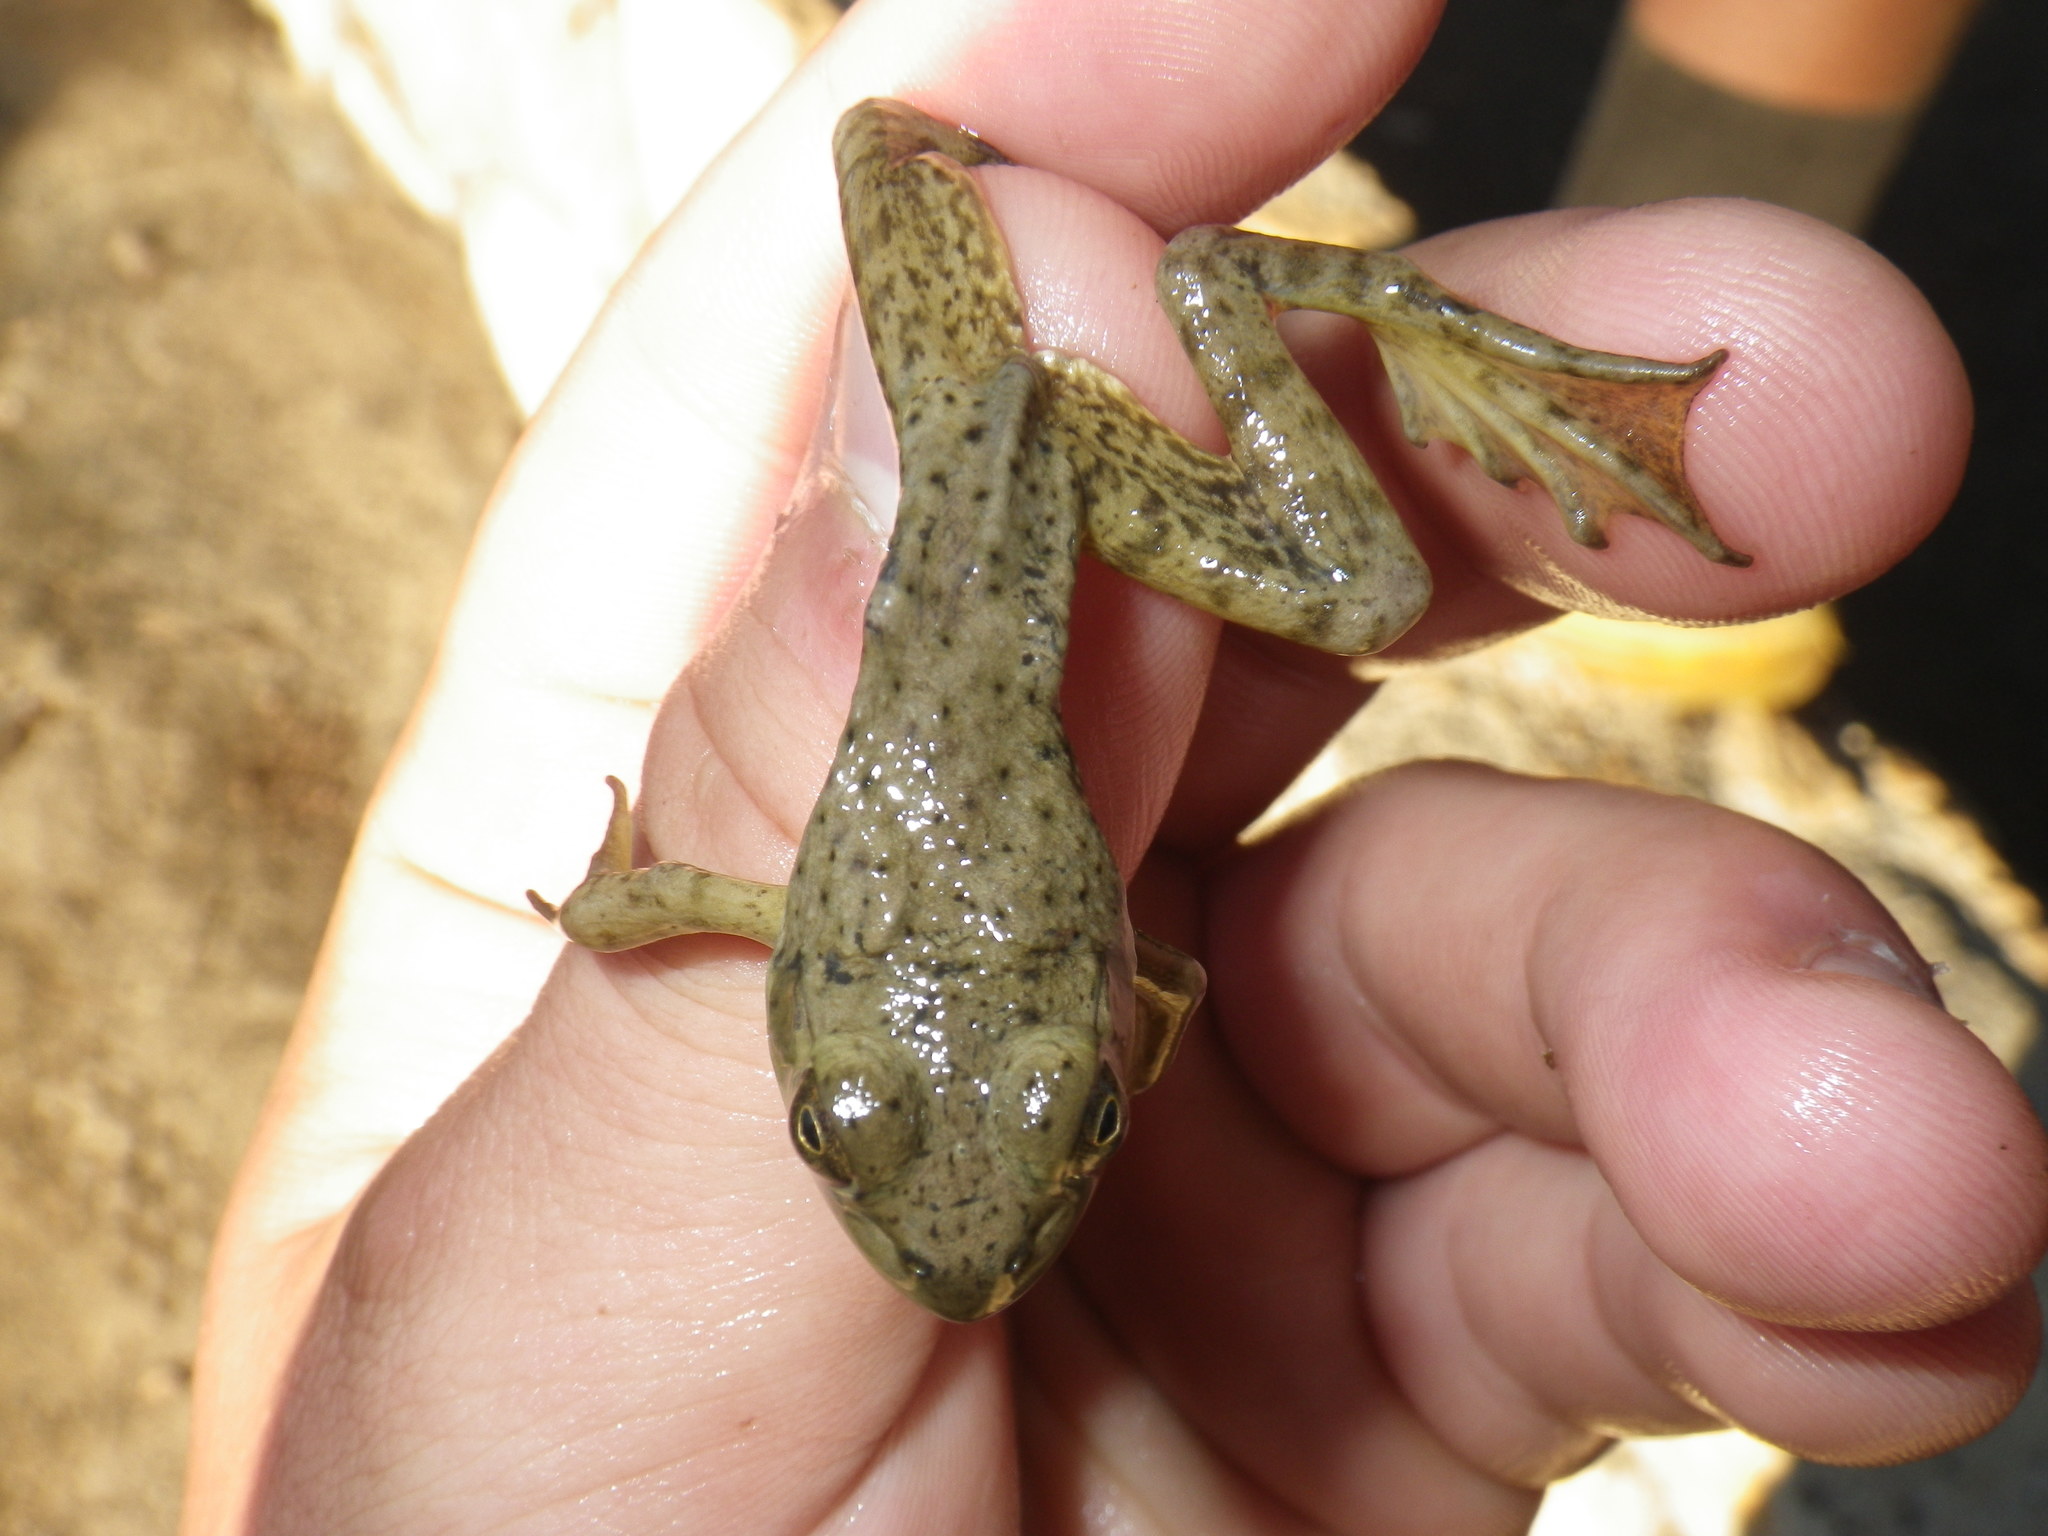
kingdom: Animalia
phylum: Chordata
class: Amphibia
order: Anura
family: Ranidae
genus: Lithobates
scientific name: Lithobates catesbeianus
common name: American bullfrog
